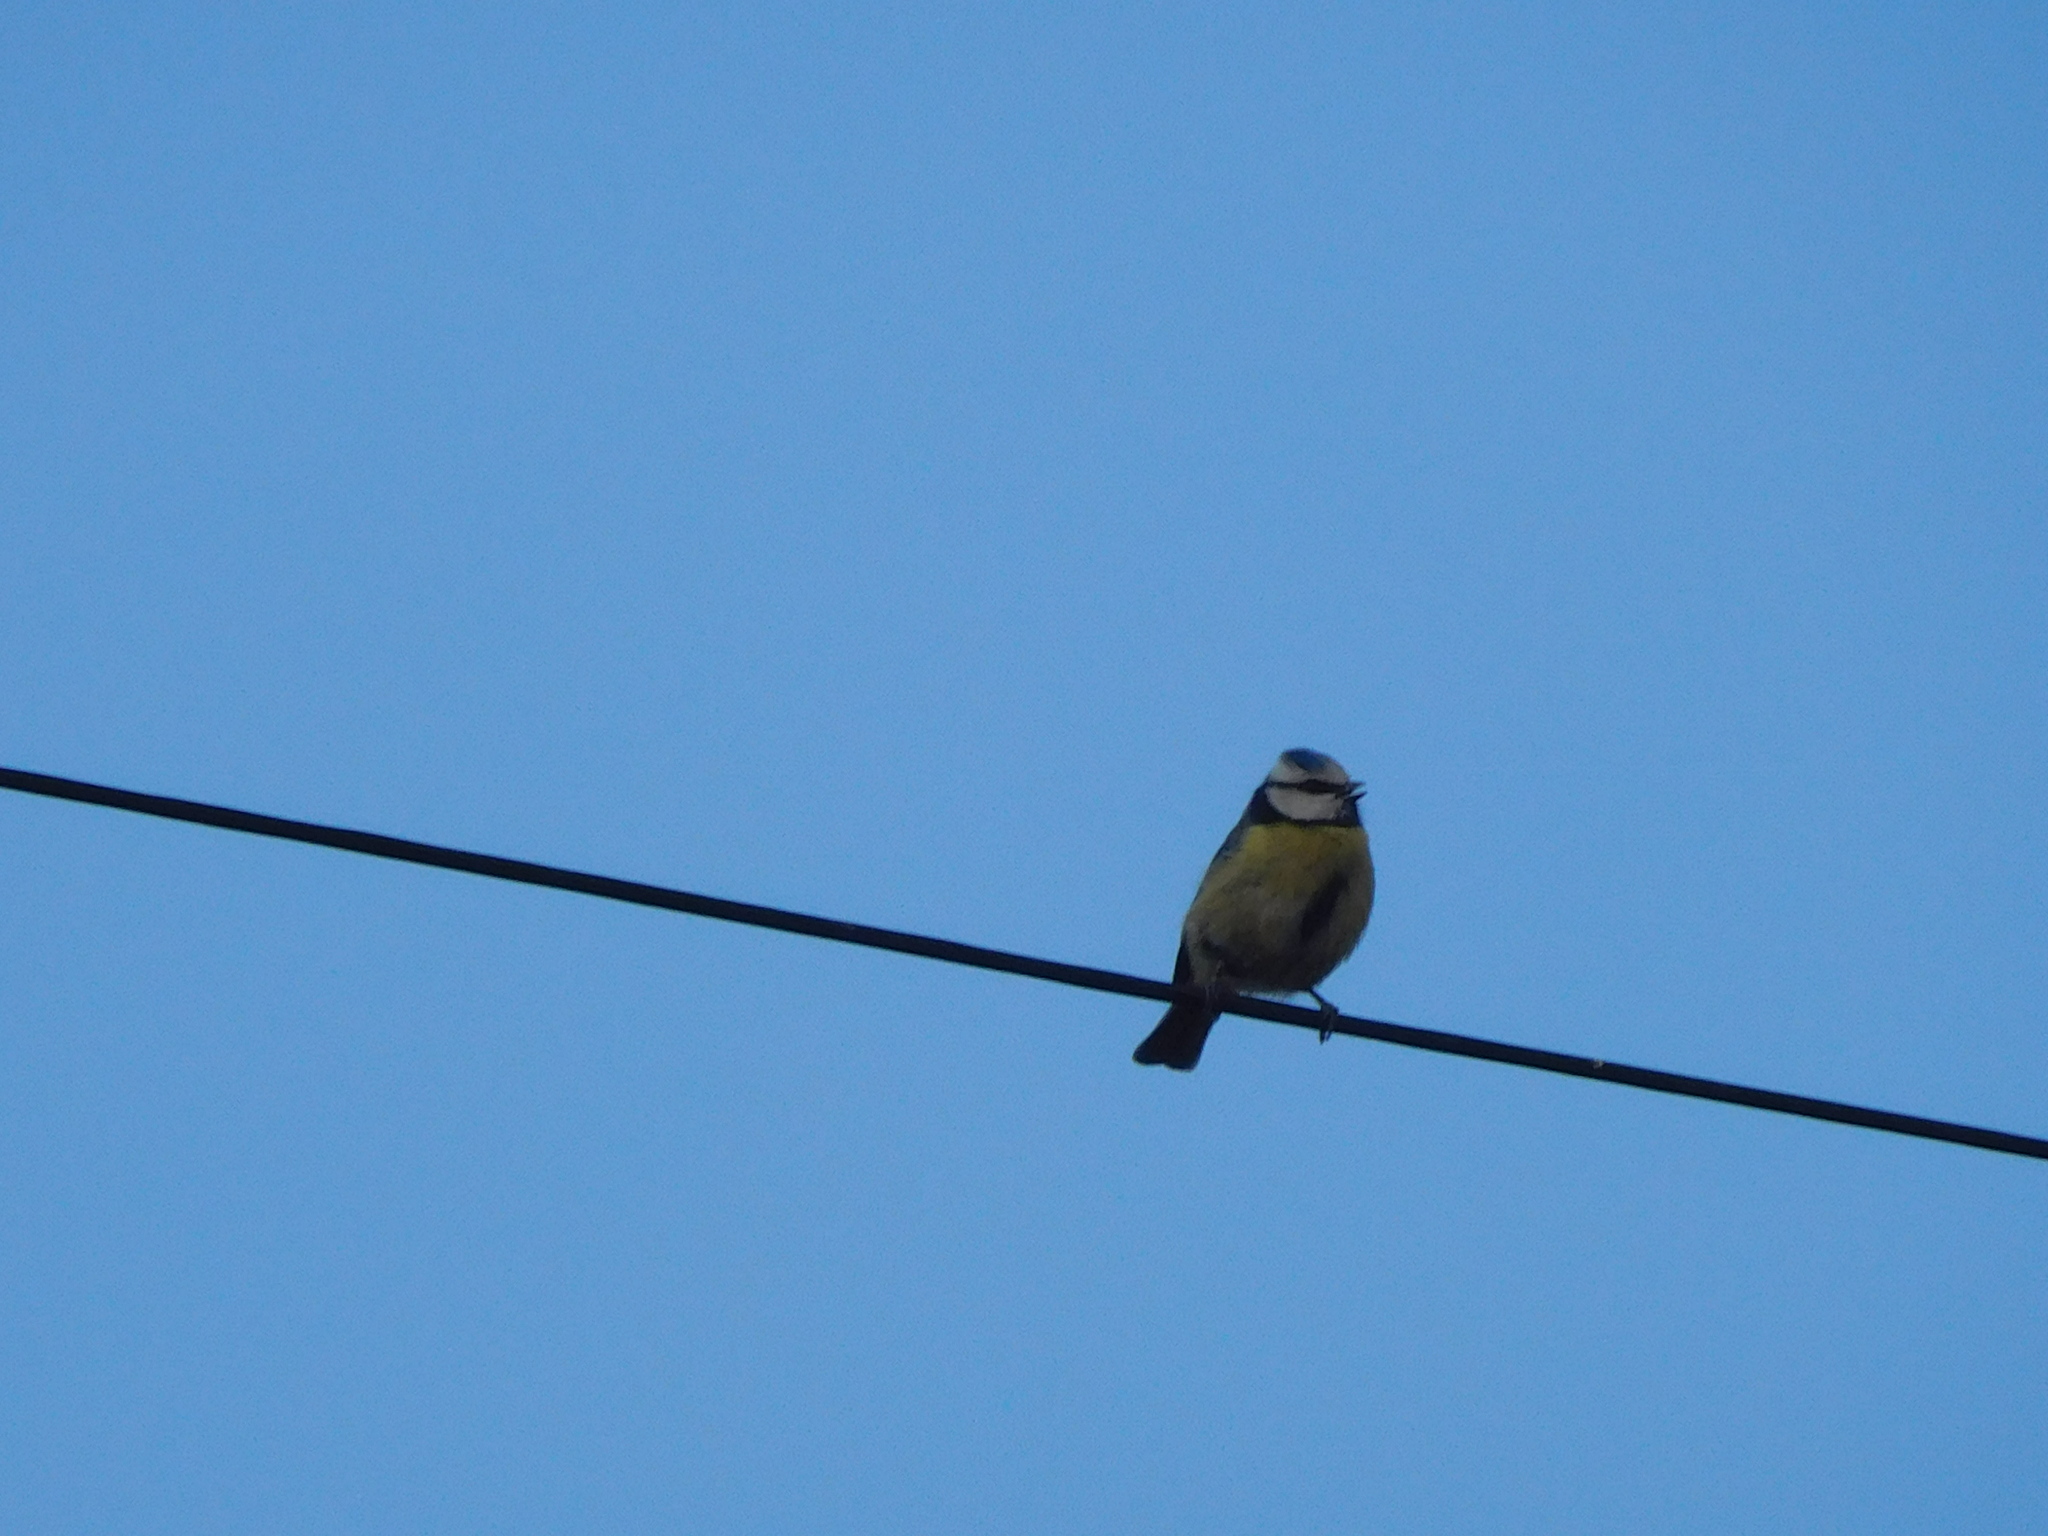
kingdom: Animalia
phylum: Chordata
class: Aves
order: Passeriformes
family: Paridae
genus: Cyanistes
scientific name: Cyanistes caeruleus
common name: Eurasian blue tit
